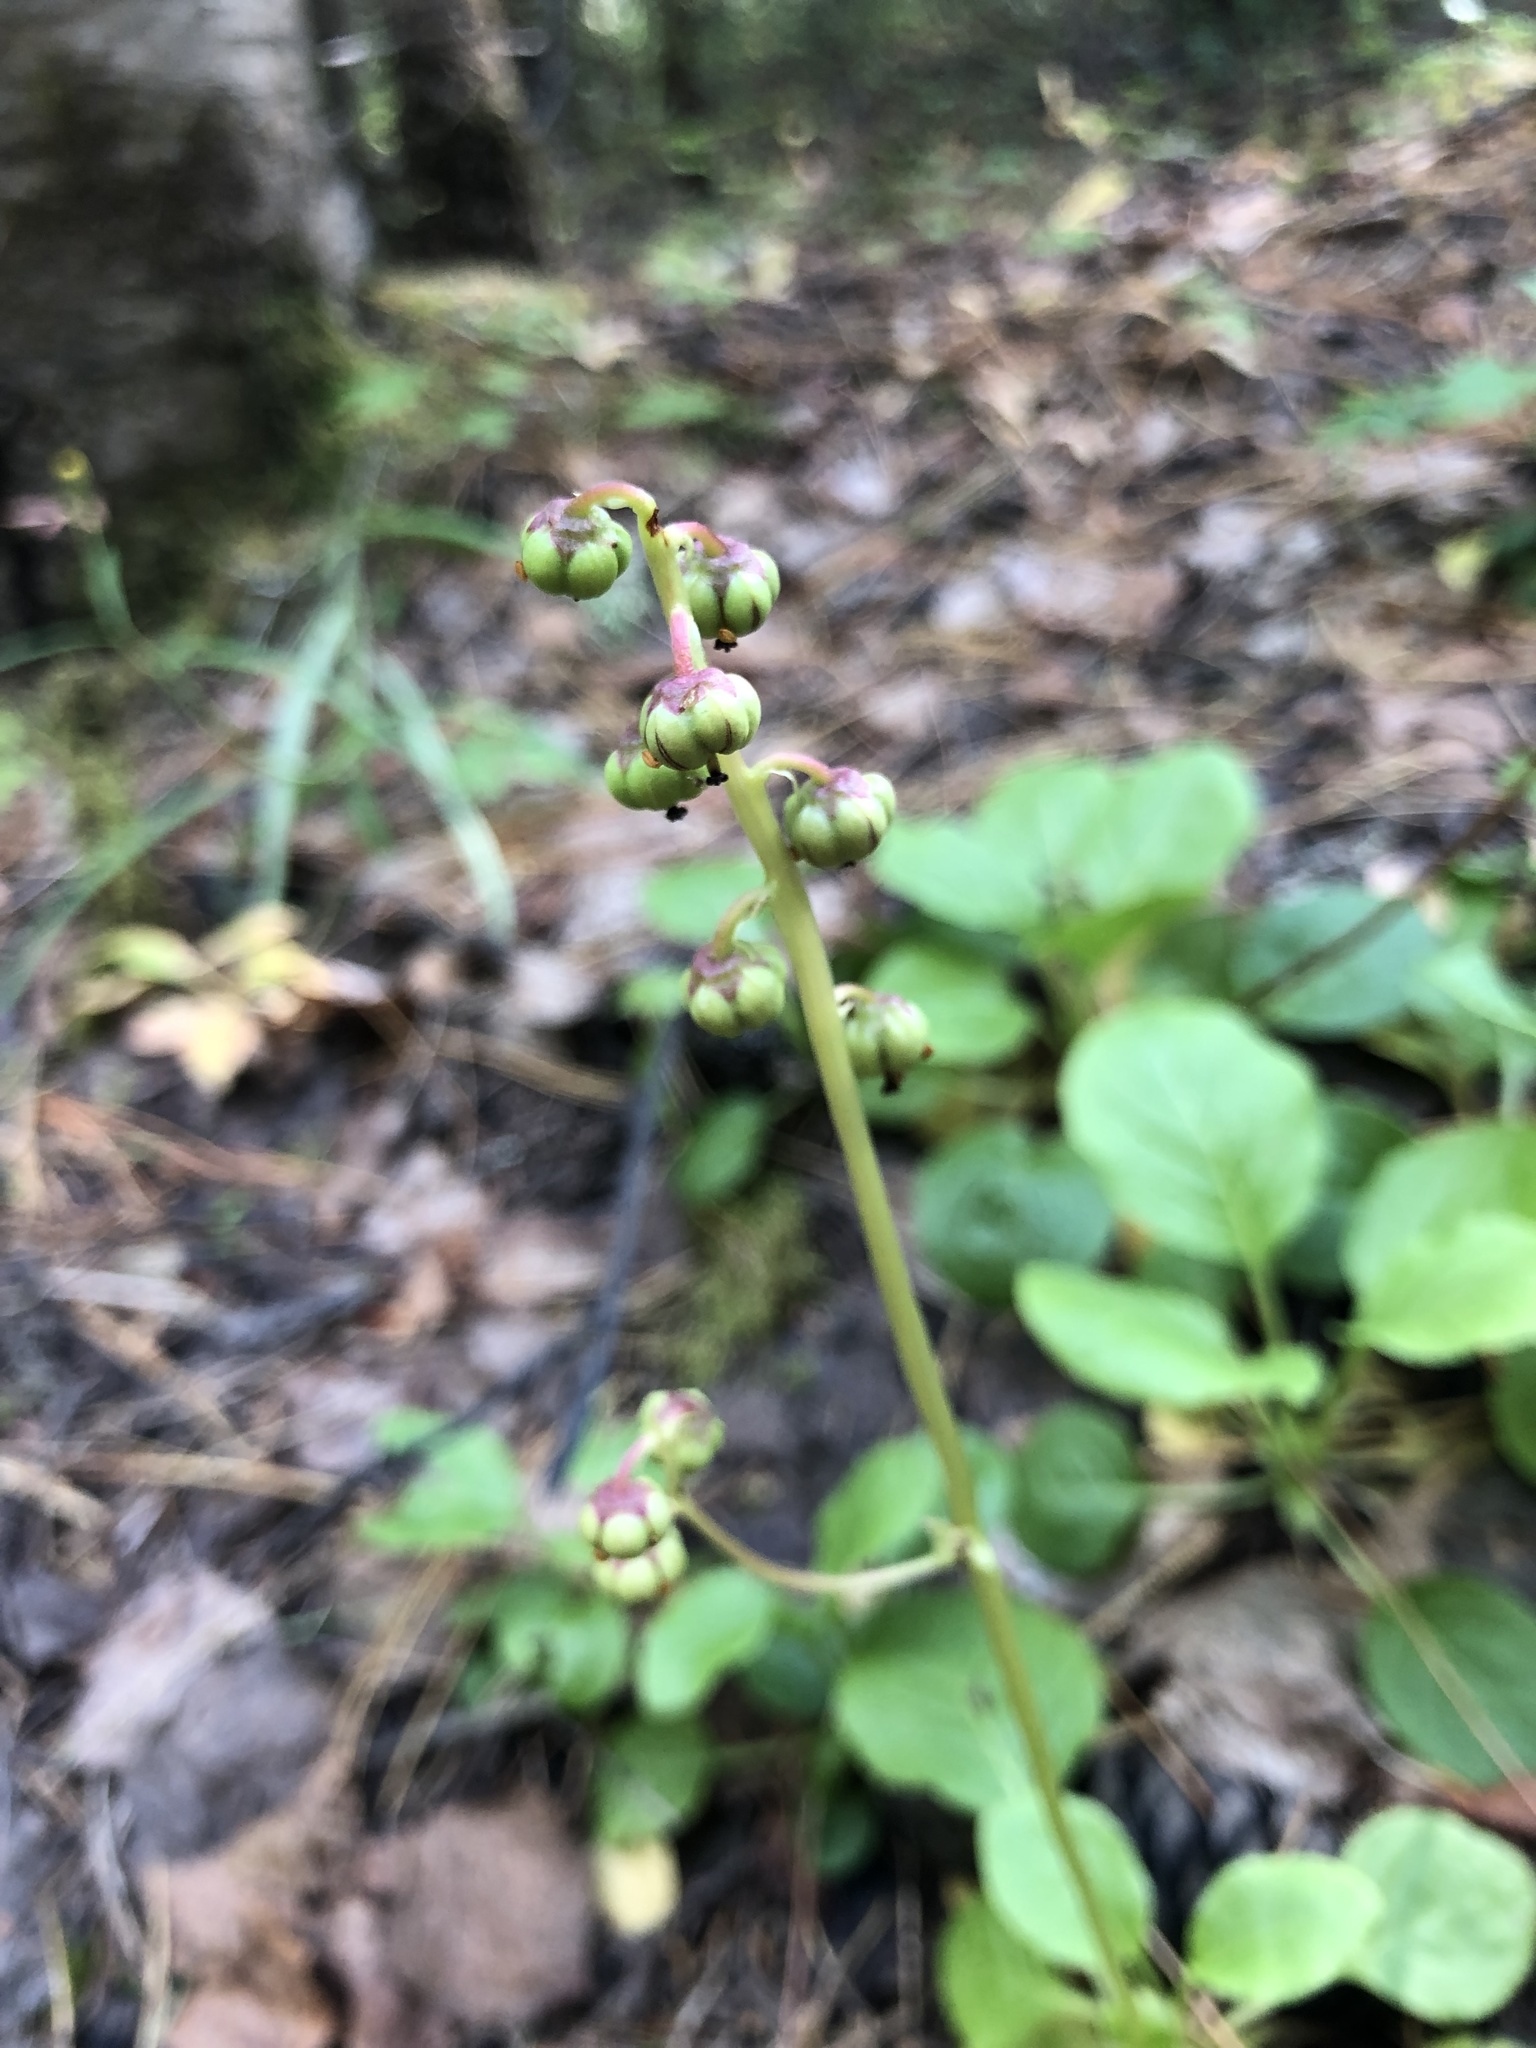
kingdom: Plantae
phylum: Tracheophyta
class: Magnoliopsida
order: Ericales
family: Ericaceae
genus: Pyrola
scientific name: Pyrola minor
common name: Common wintergreen
